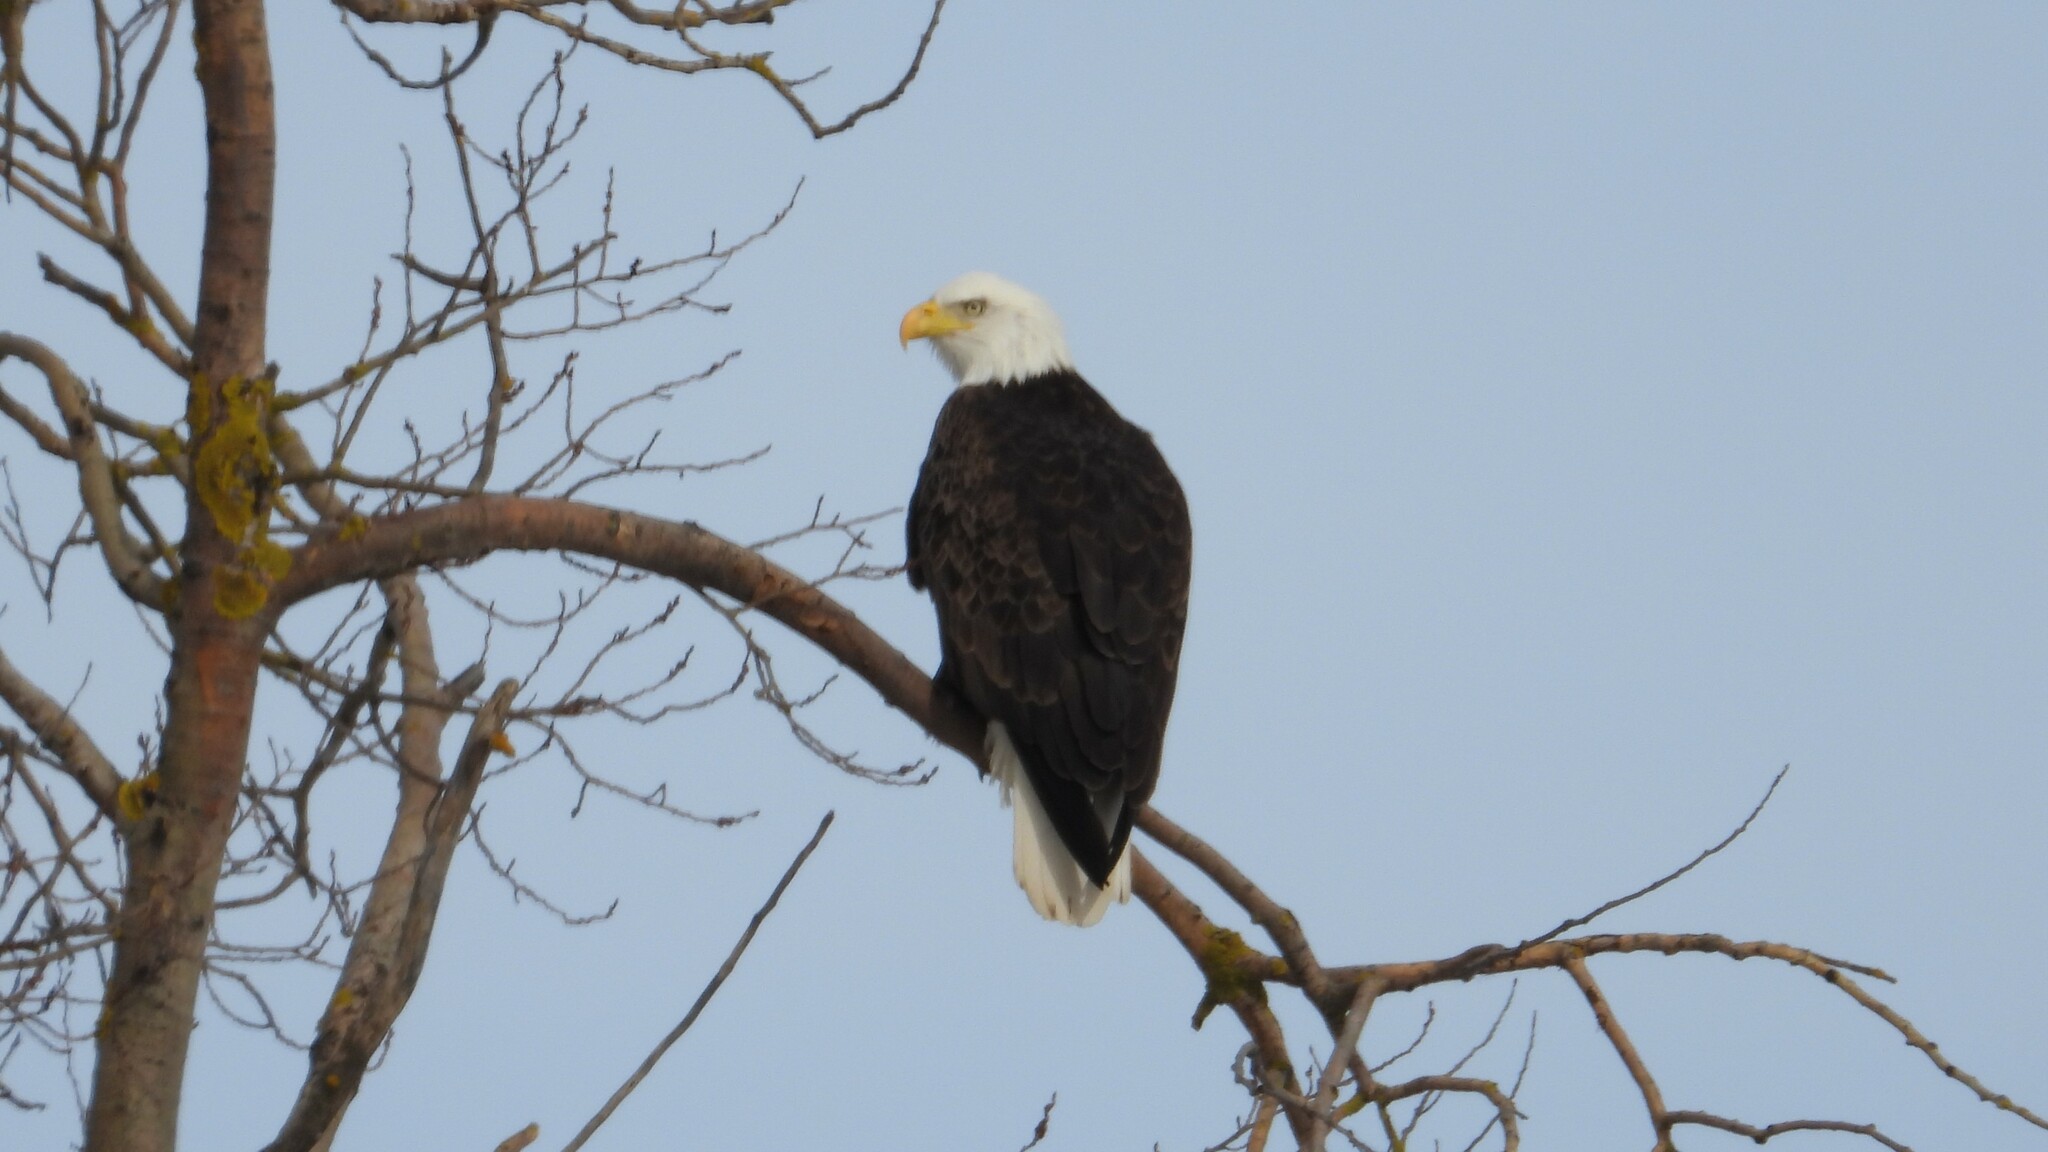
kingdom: Animalia
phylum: Chordata
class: Aves
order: Accipitriformes
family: Accipitridae
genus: Haliaeetus
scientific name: Haliaeetus leucocephalus
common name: Bald eagle
